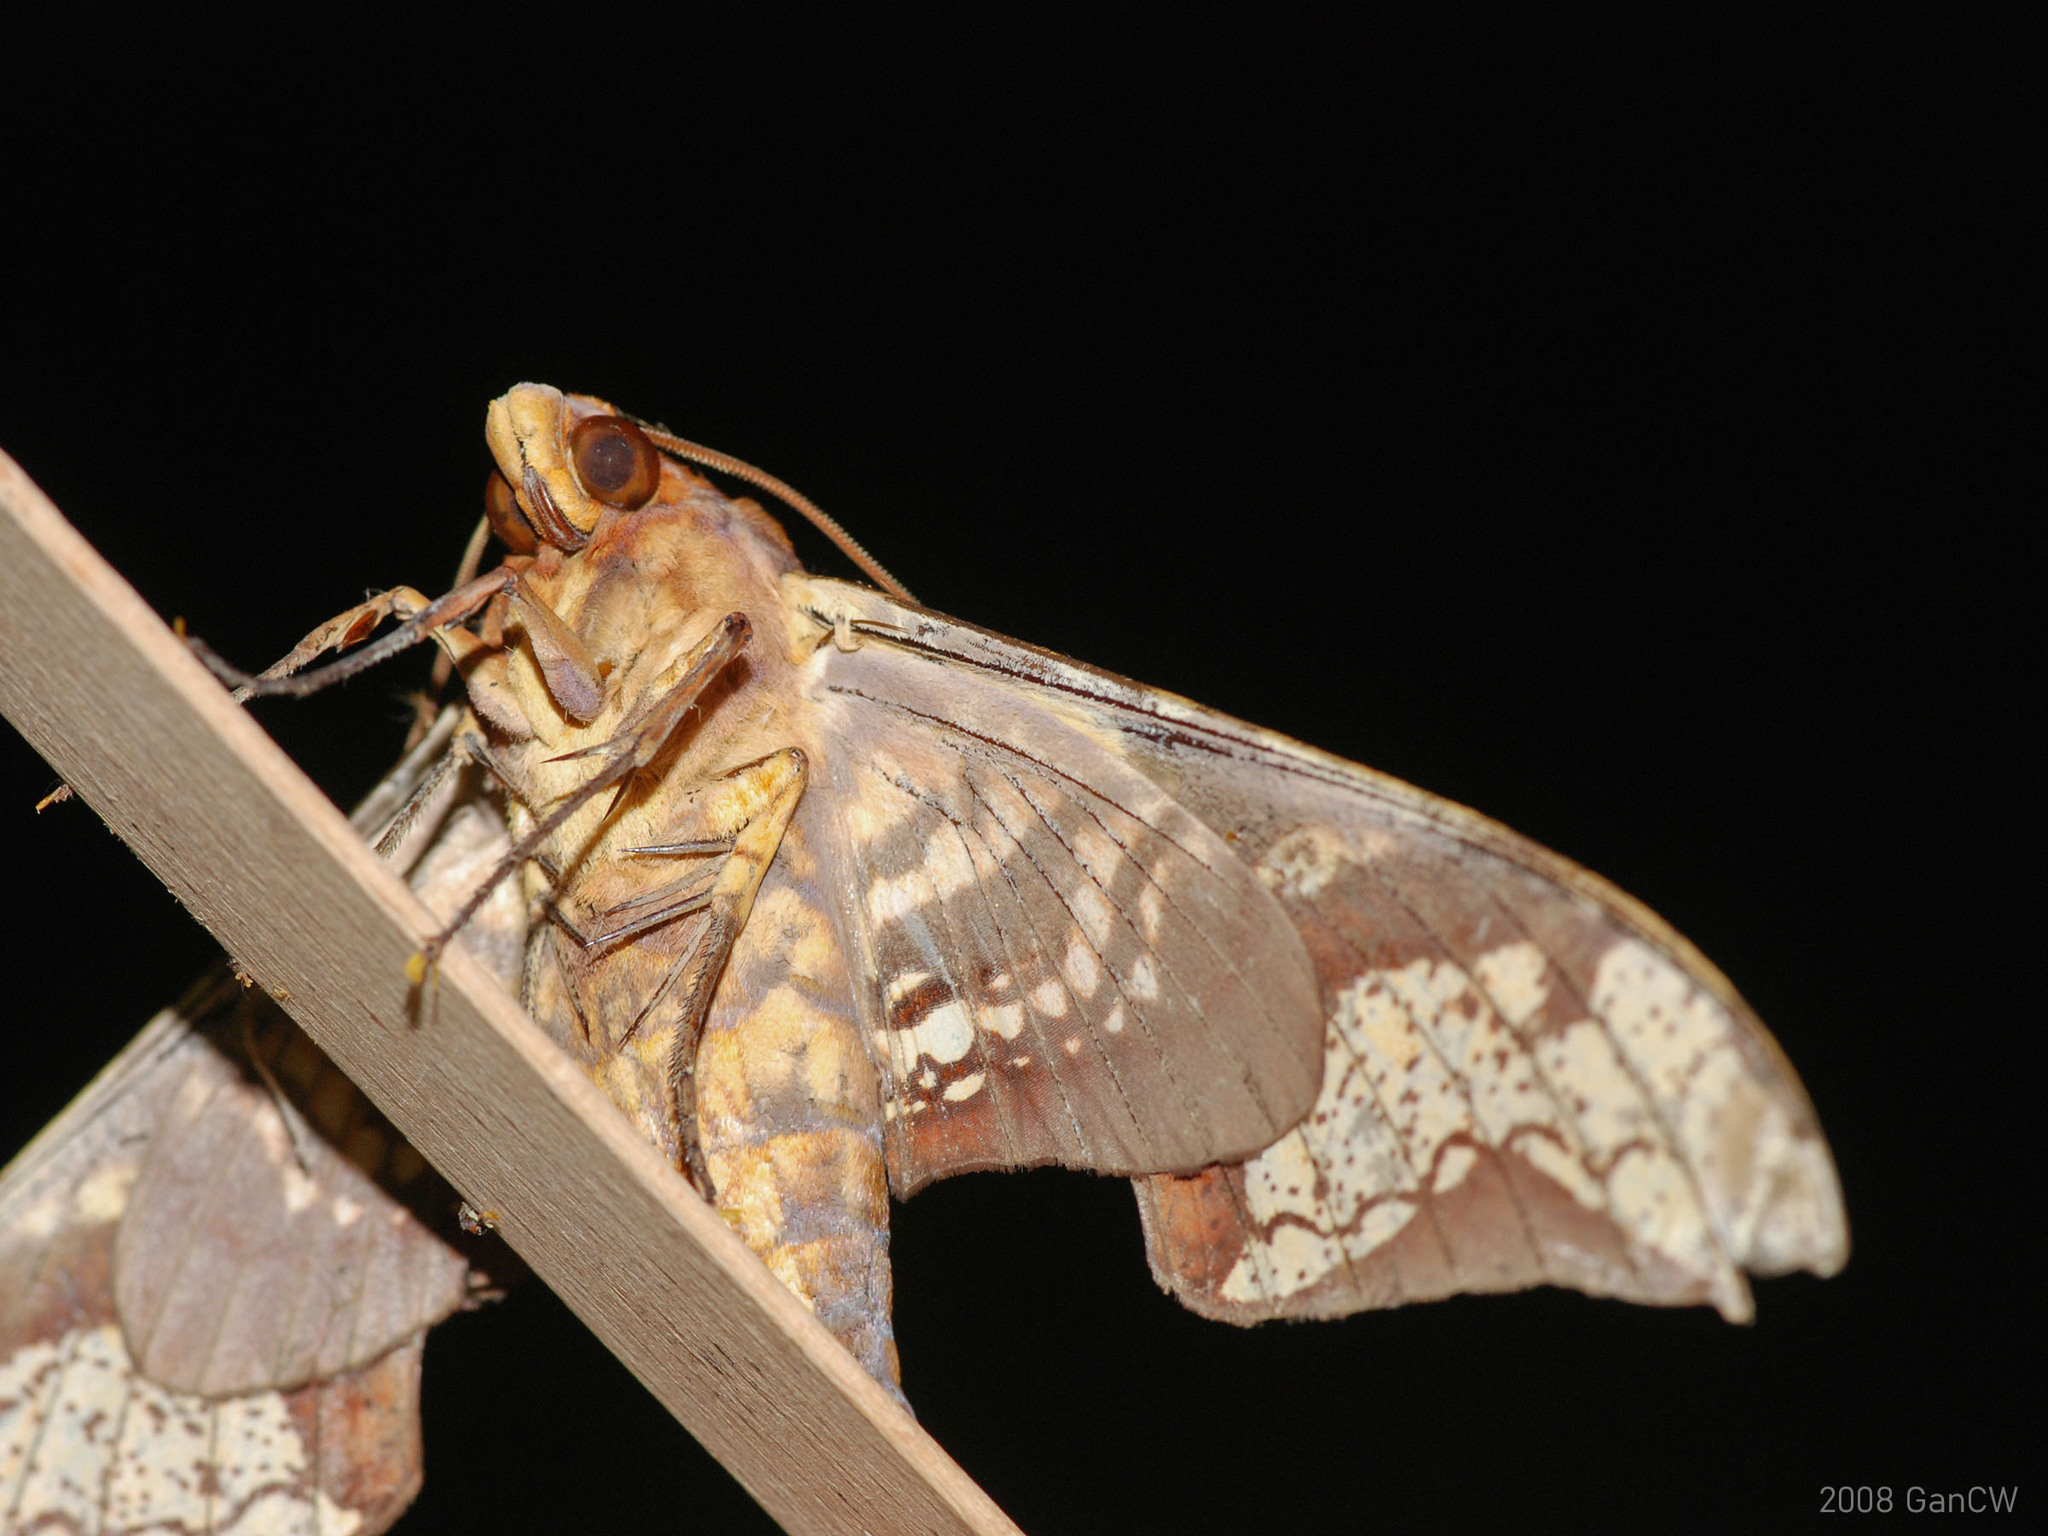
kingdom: Animalia
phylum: Arthropoda
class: Insecta
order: Lepidoptera
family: Sphingidae
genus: Amplypterus
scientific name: Amplypterus panopus
